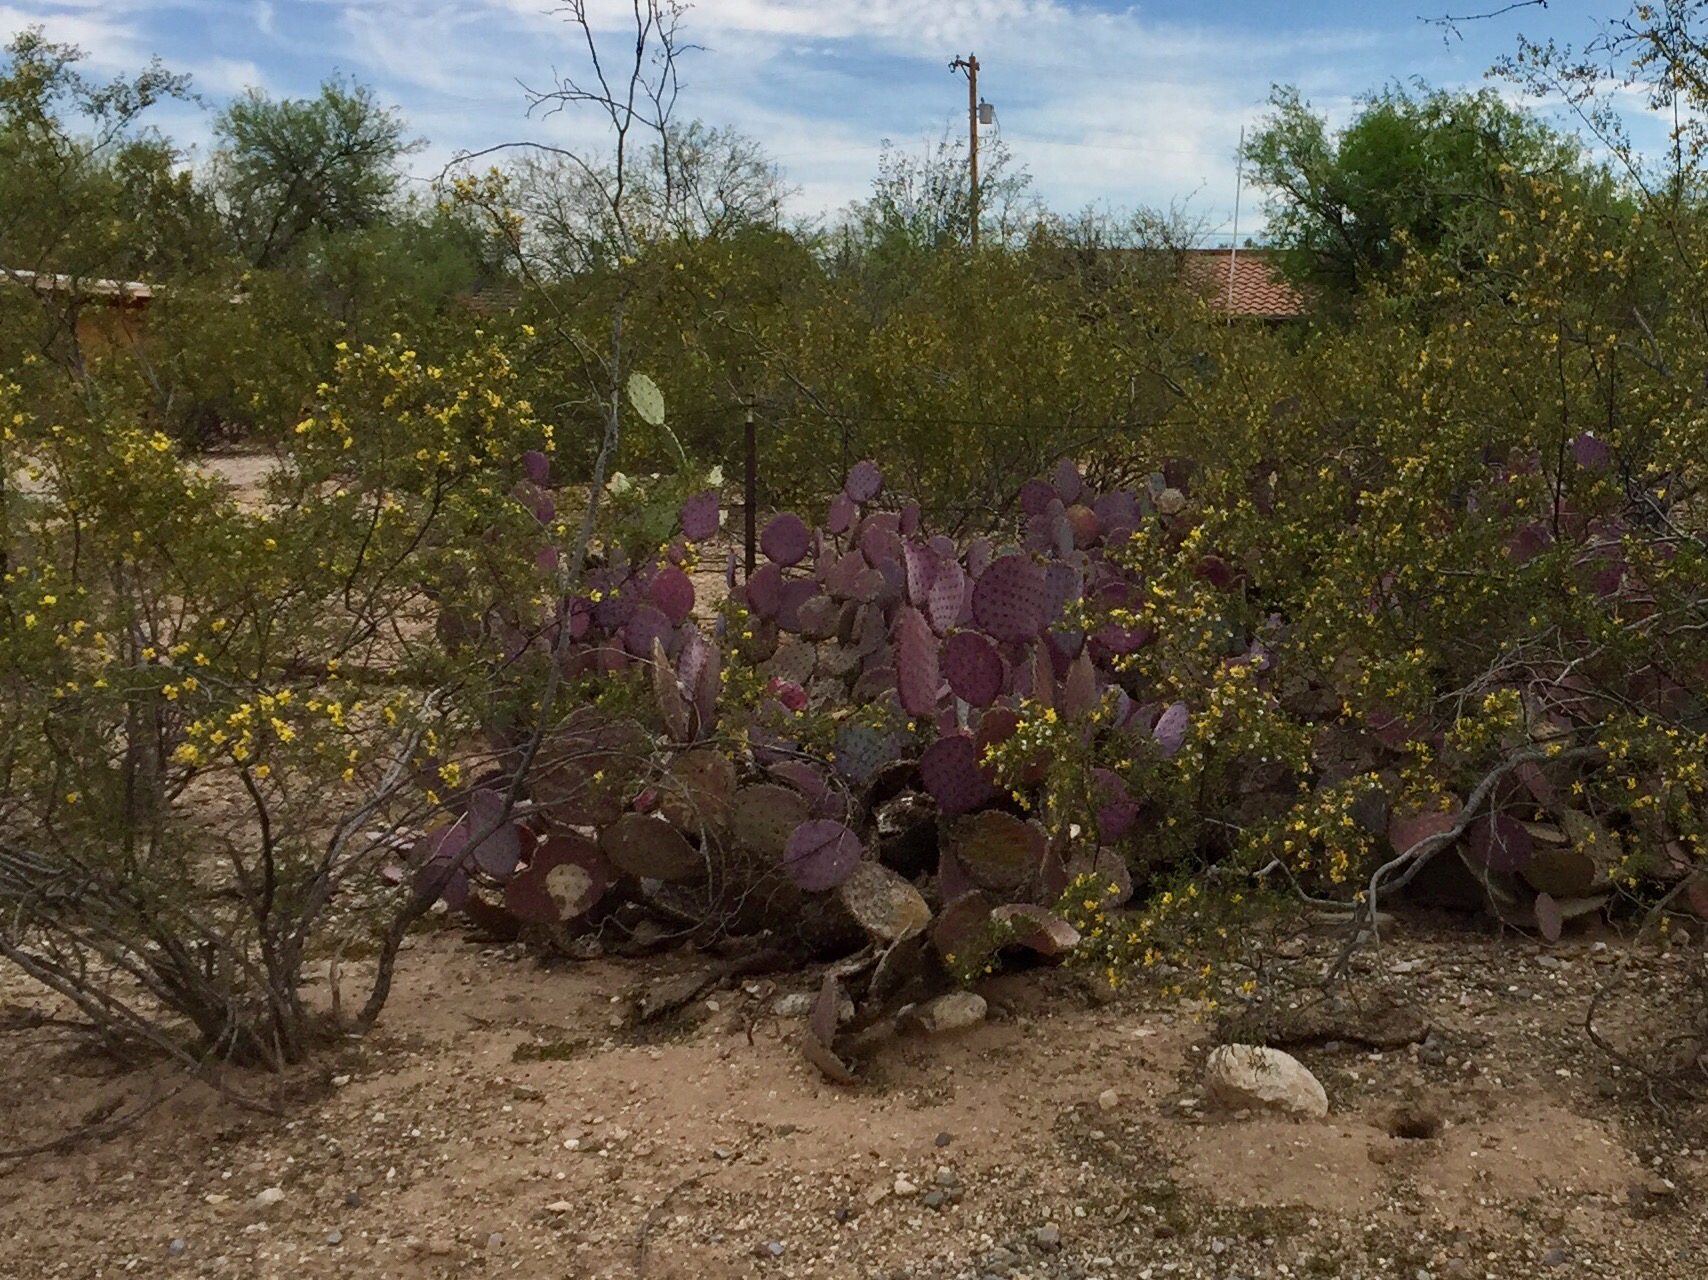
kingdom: Plantae
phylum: Tracheophyta
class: Magnoliopsida
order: Caryophyllales
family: Cactaceae
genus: Opuntia
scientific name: Opuntia gosseliniana
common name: Violet prickly-pear
